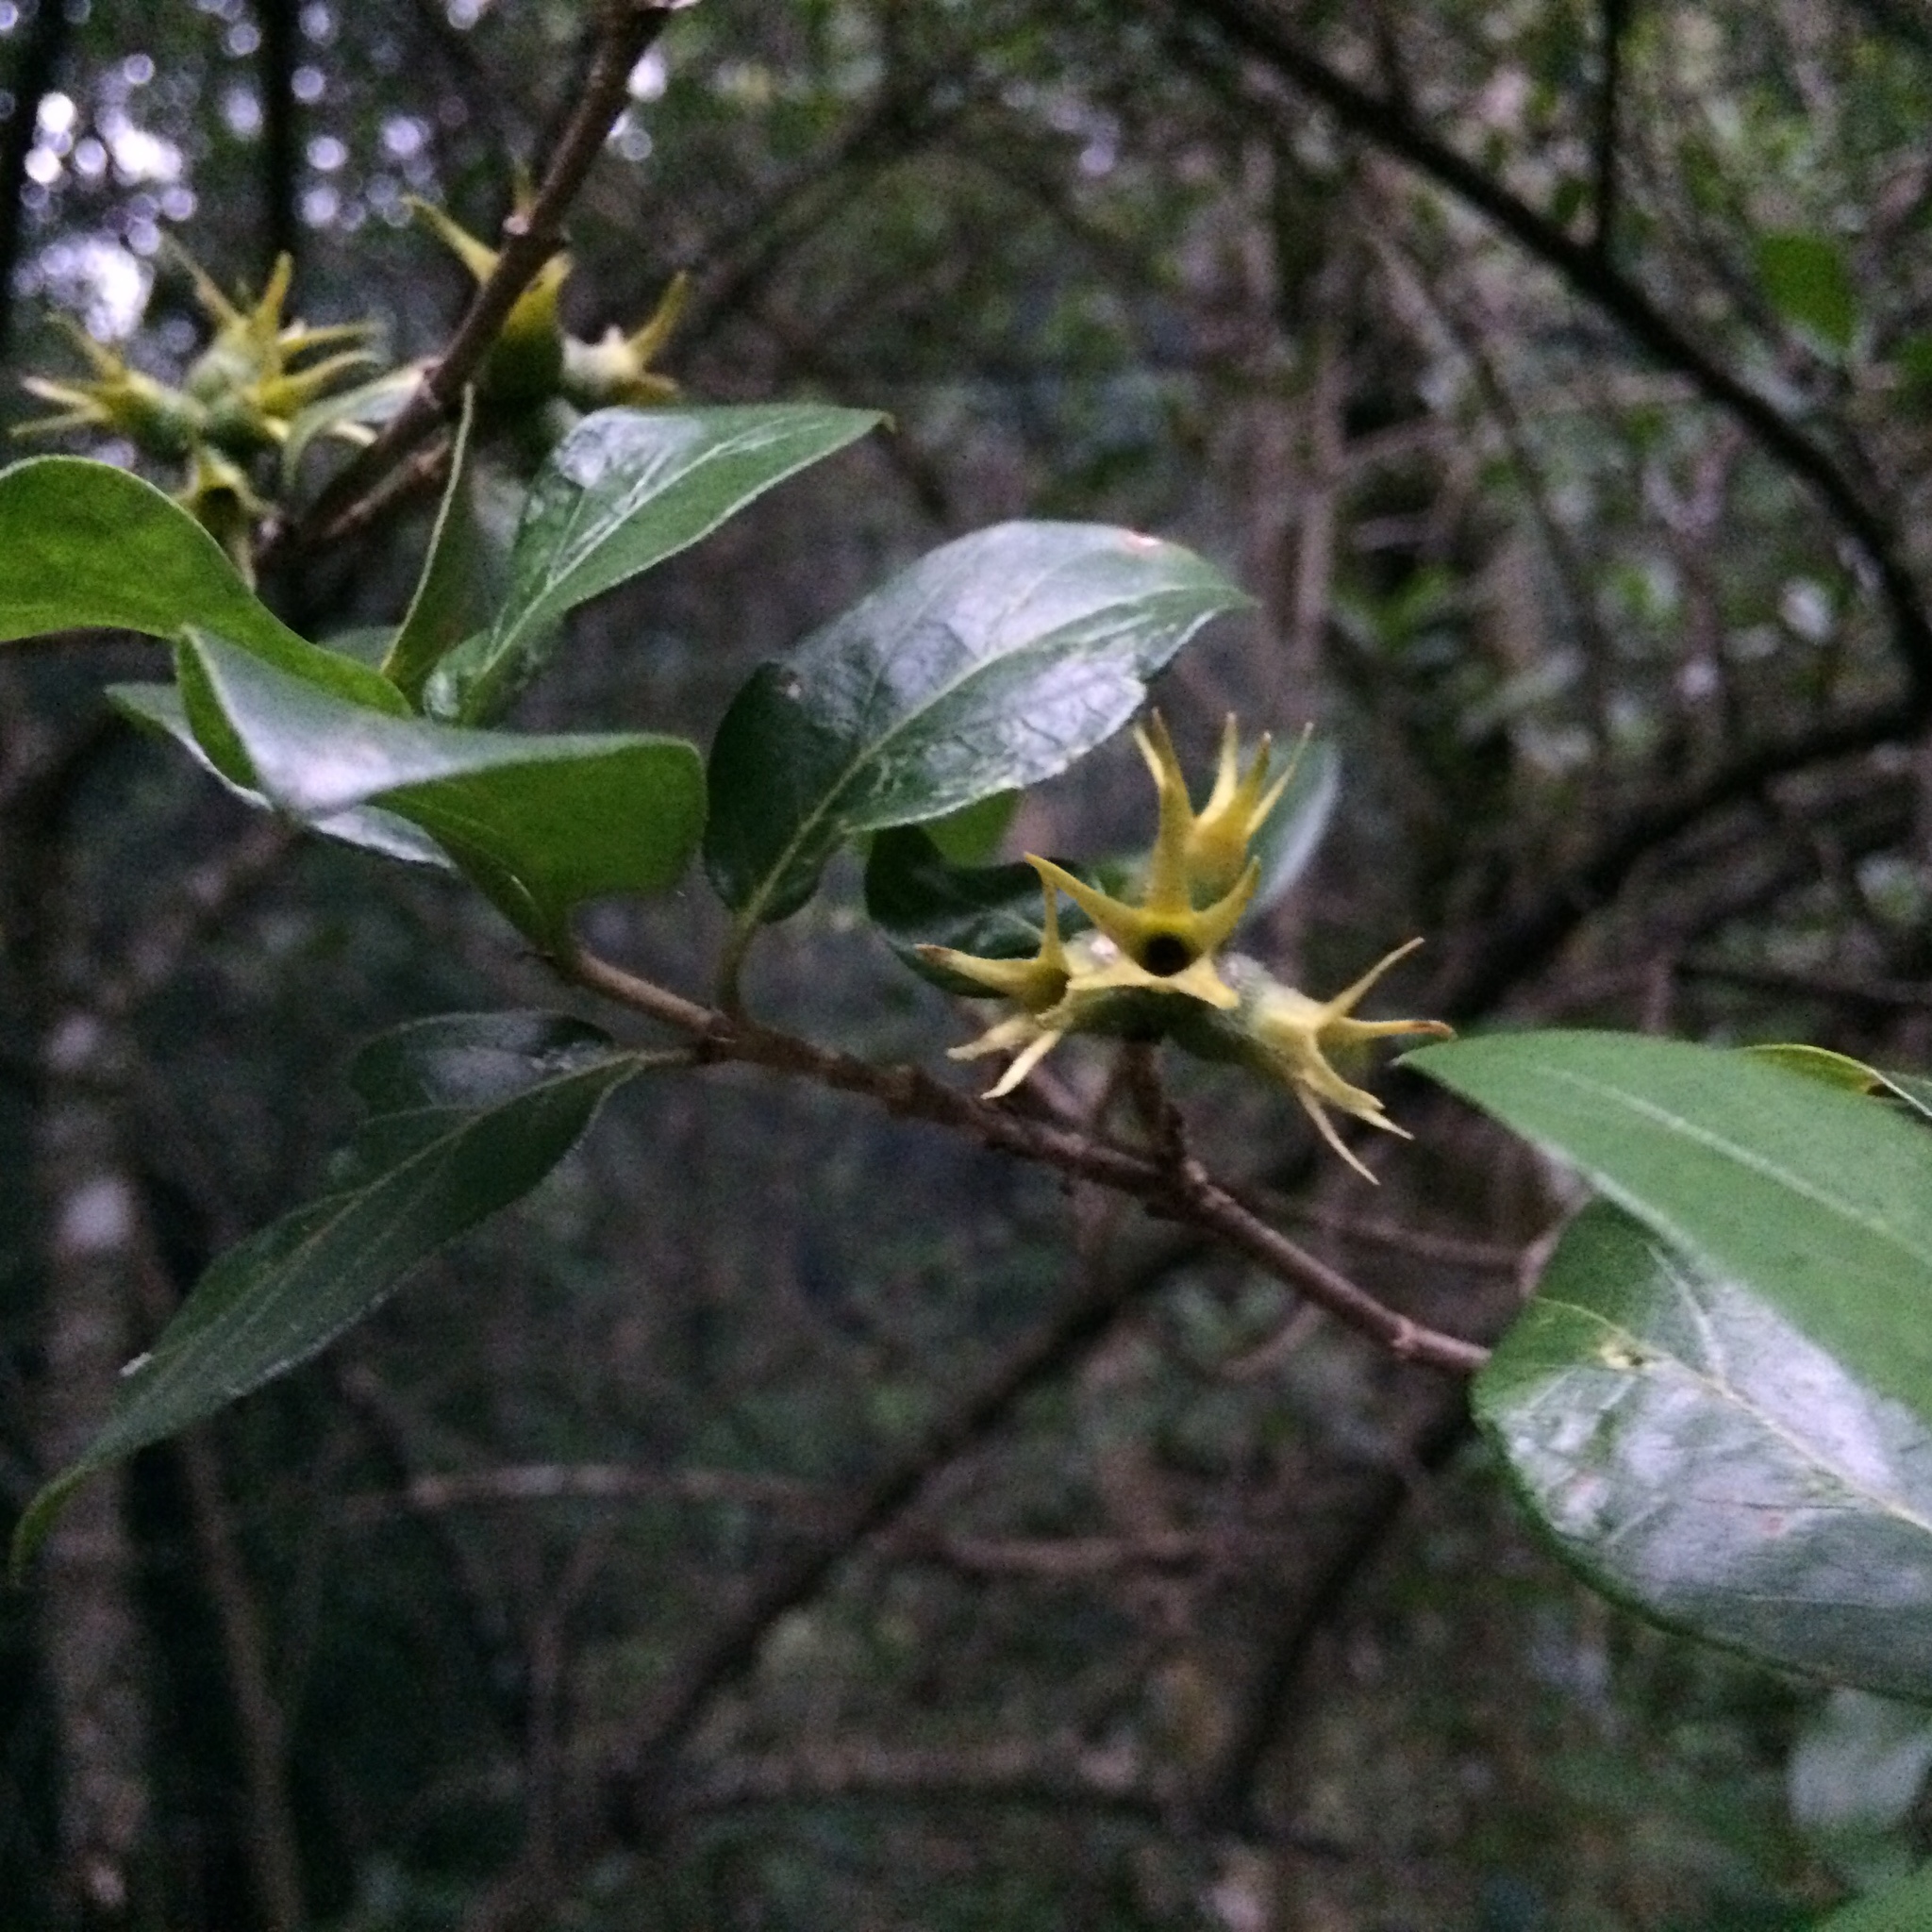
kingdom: Plantae
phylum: Tracheophyta
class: Magnoliopsida
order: Gentianales
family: Rubiaceae
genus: Burchellia
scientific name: Burchellia bubalina
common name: Wild pomegranate
